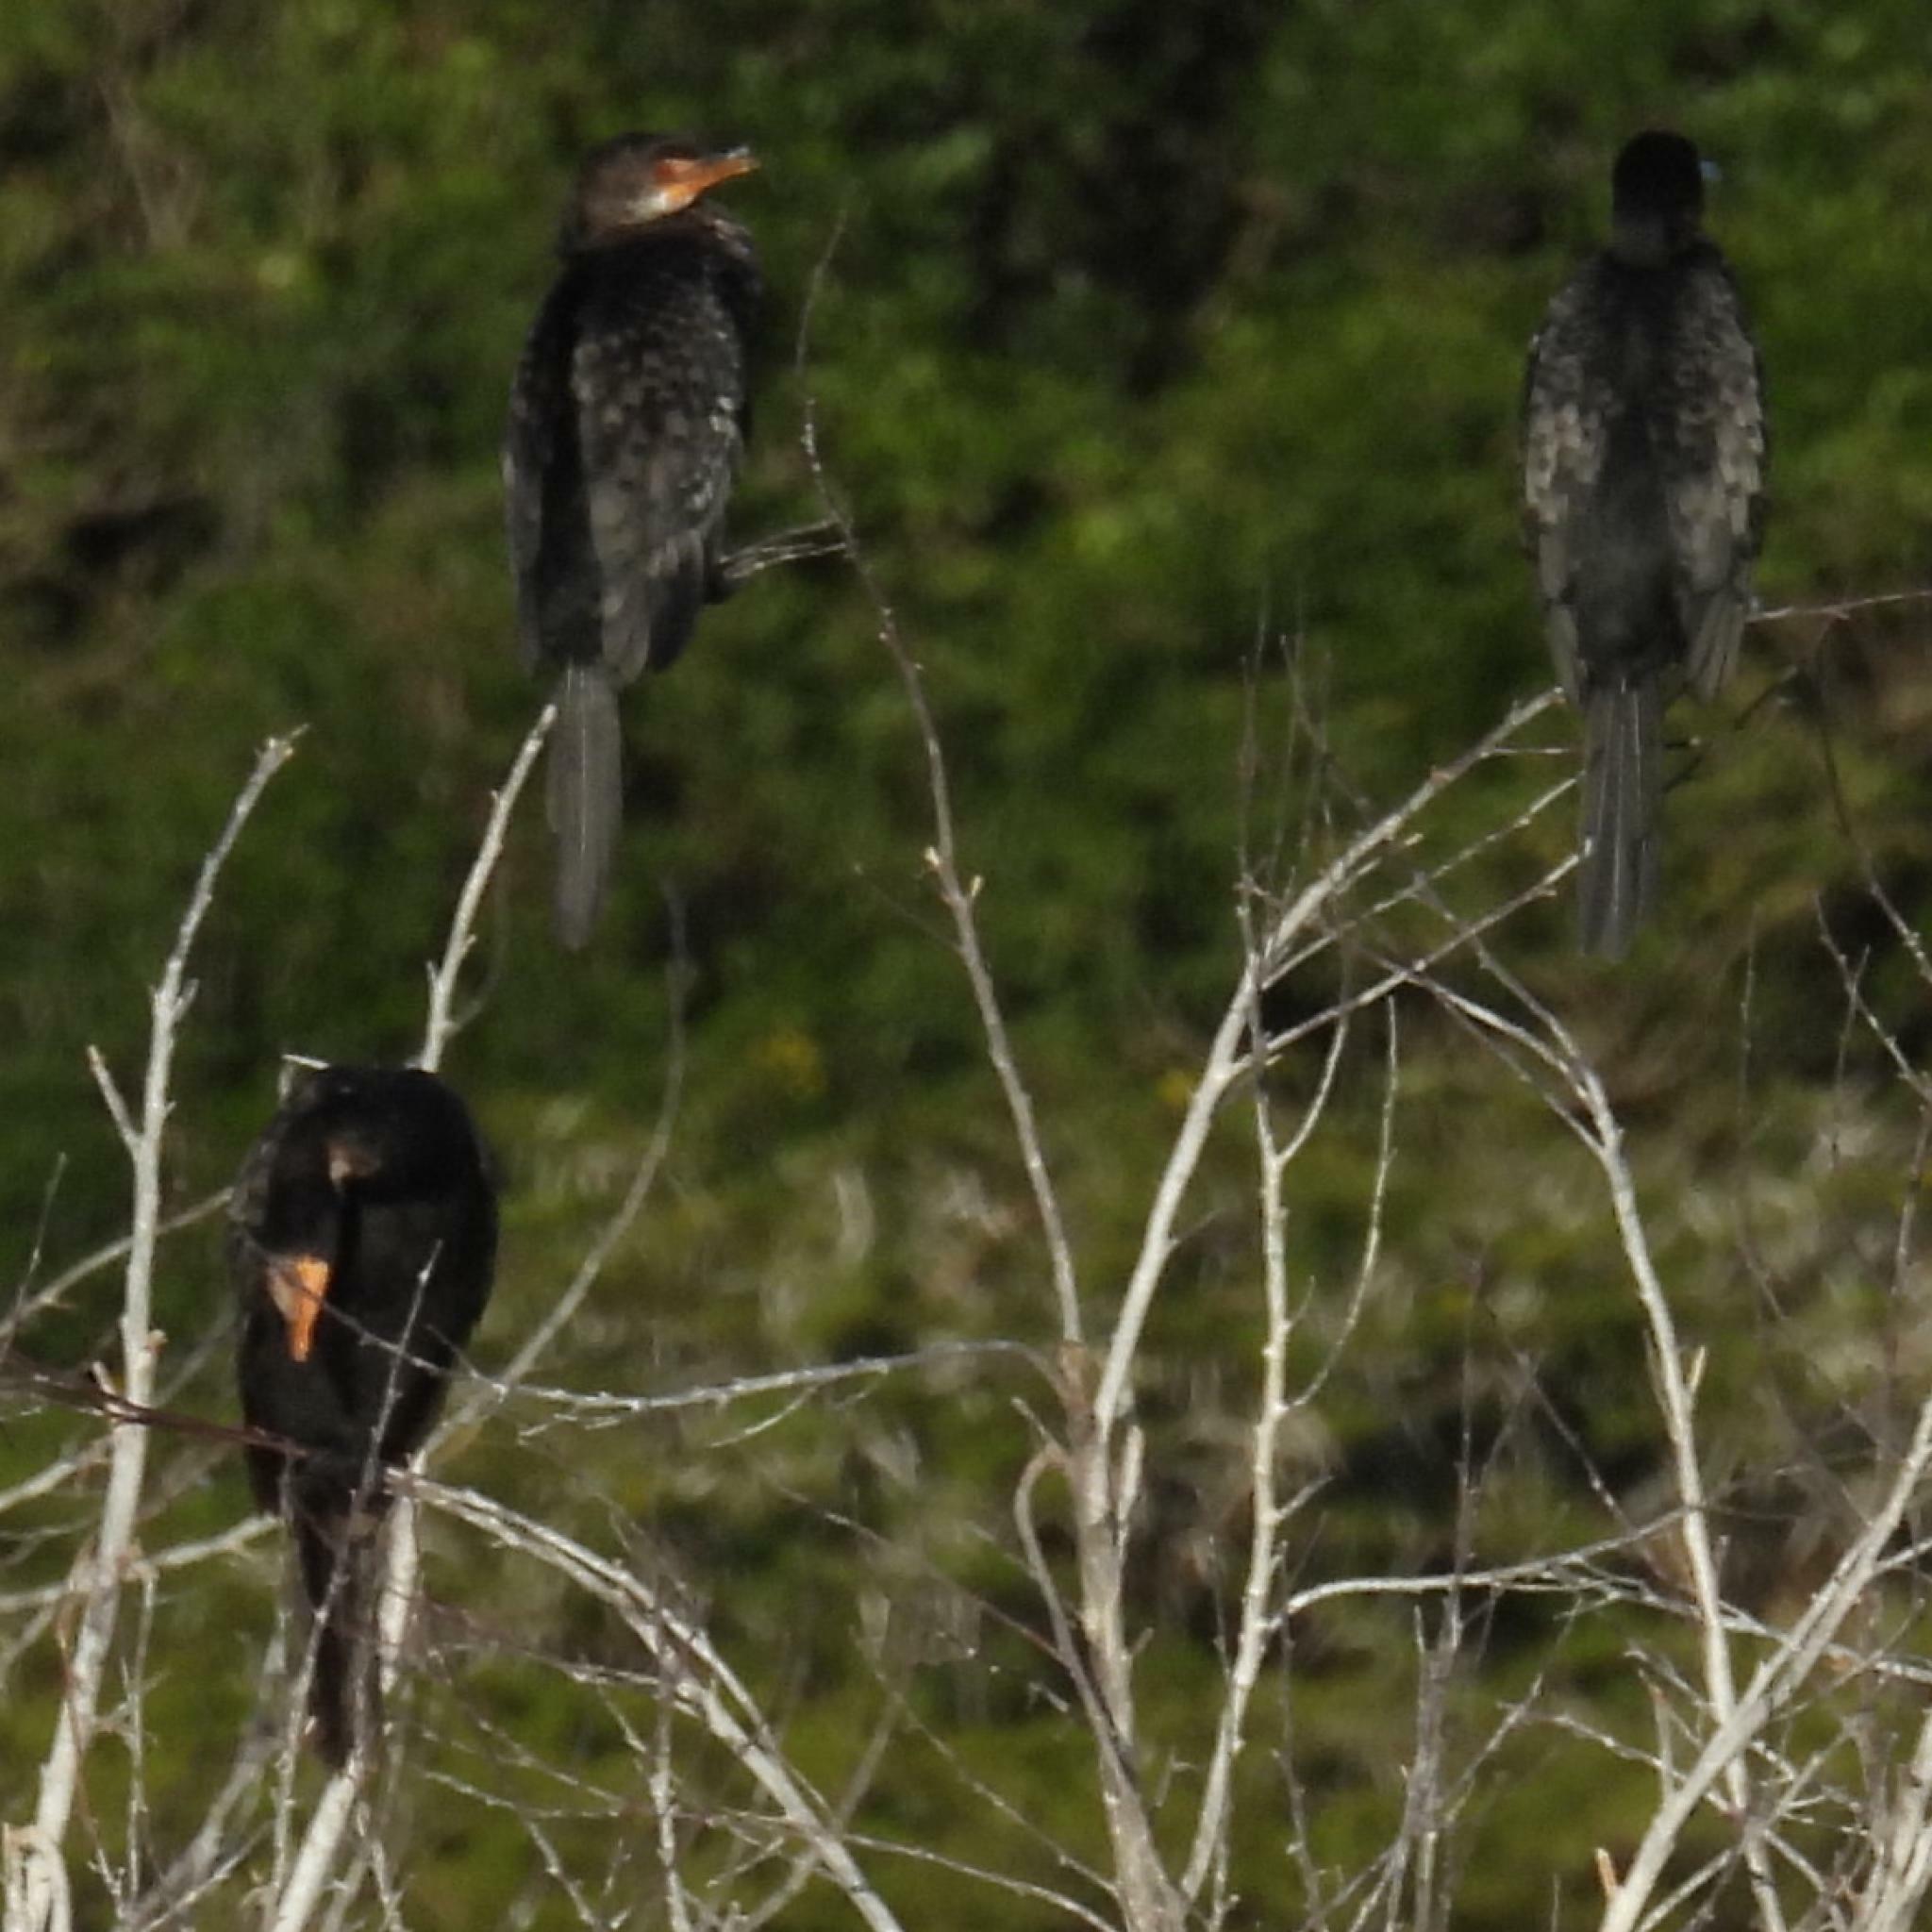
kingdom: Animalia
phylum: Chordata
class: Aves
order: Suliformes
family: Phalacrocoracidae
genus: Microcarbo
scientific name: Microcarbo africanus
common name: Long-tailed cormorant
